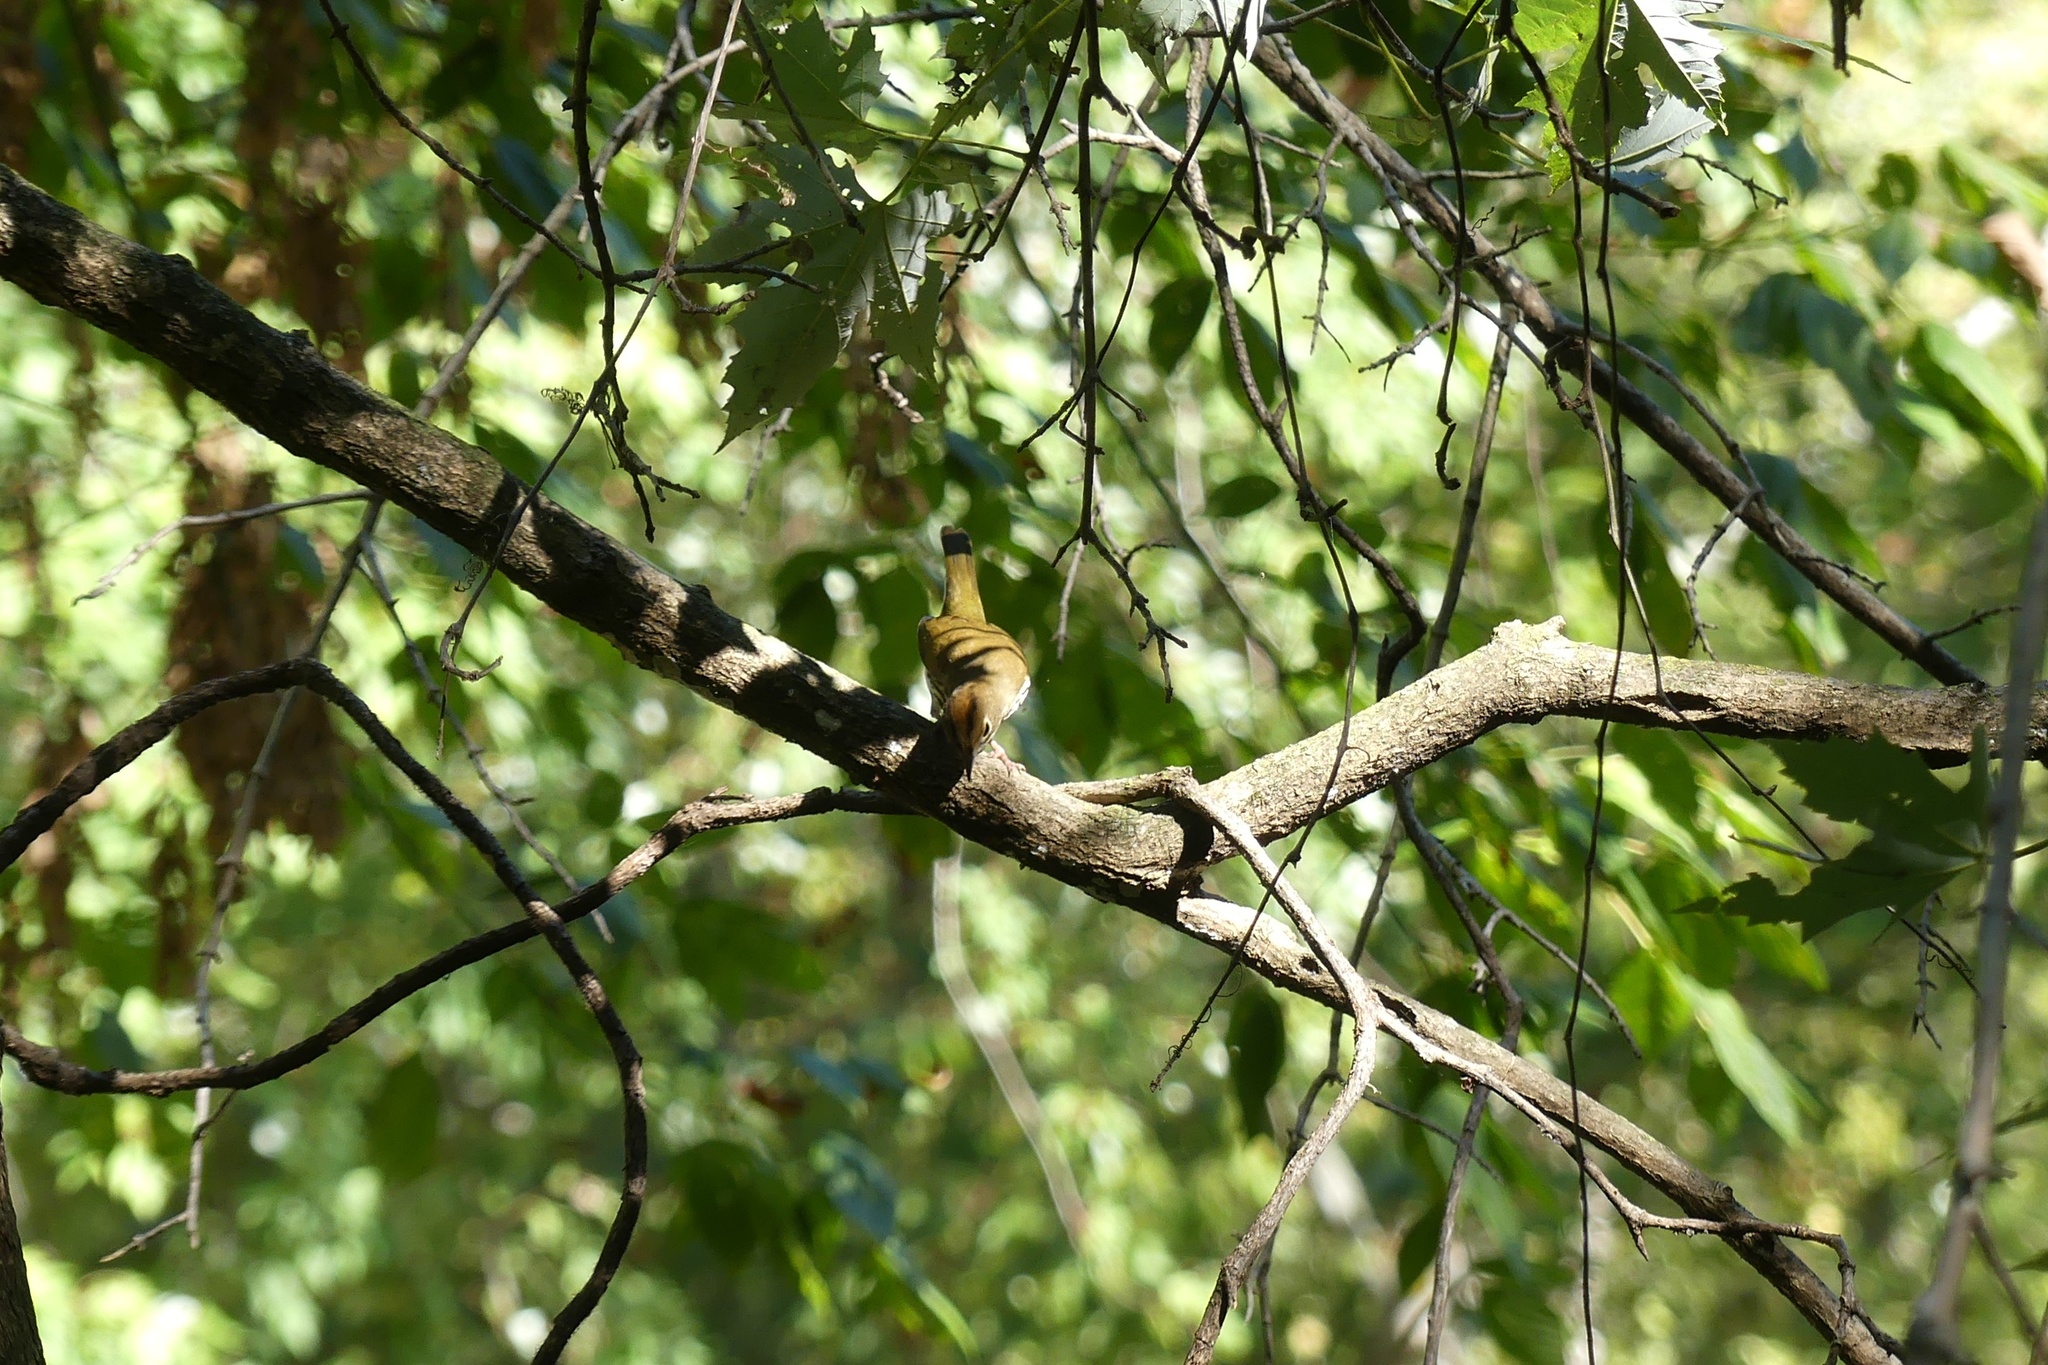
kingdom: Animalia
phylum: Chordata
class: Aves
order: Passeriformes
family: Parulidae
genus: Seiurus
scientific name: Seiurus aurocapilla
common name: Ovenbird
